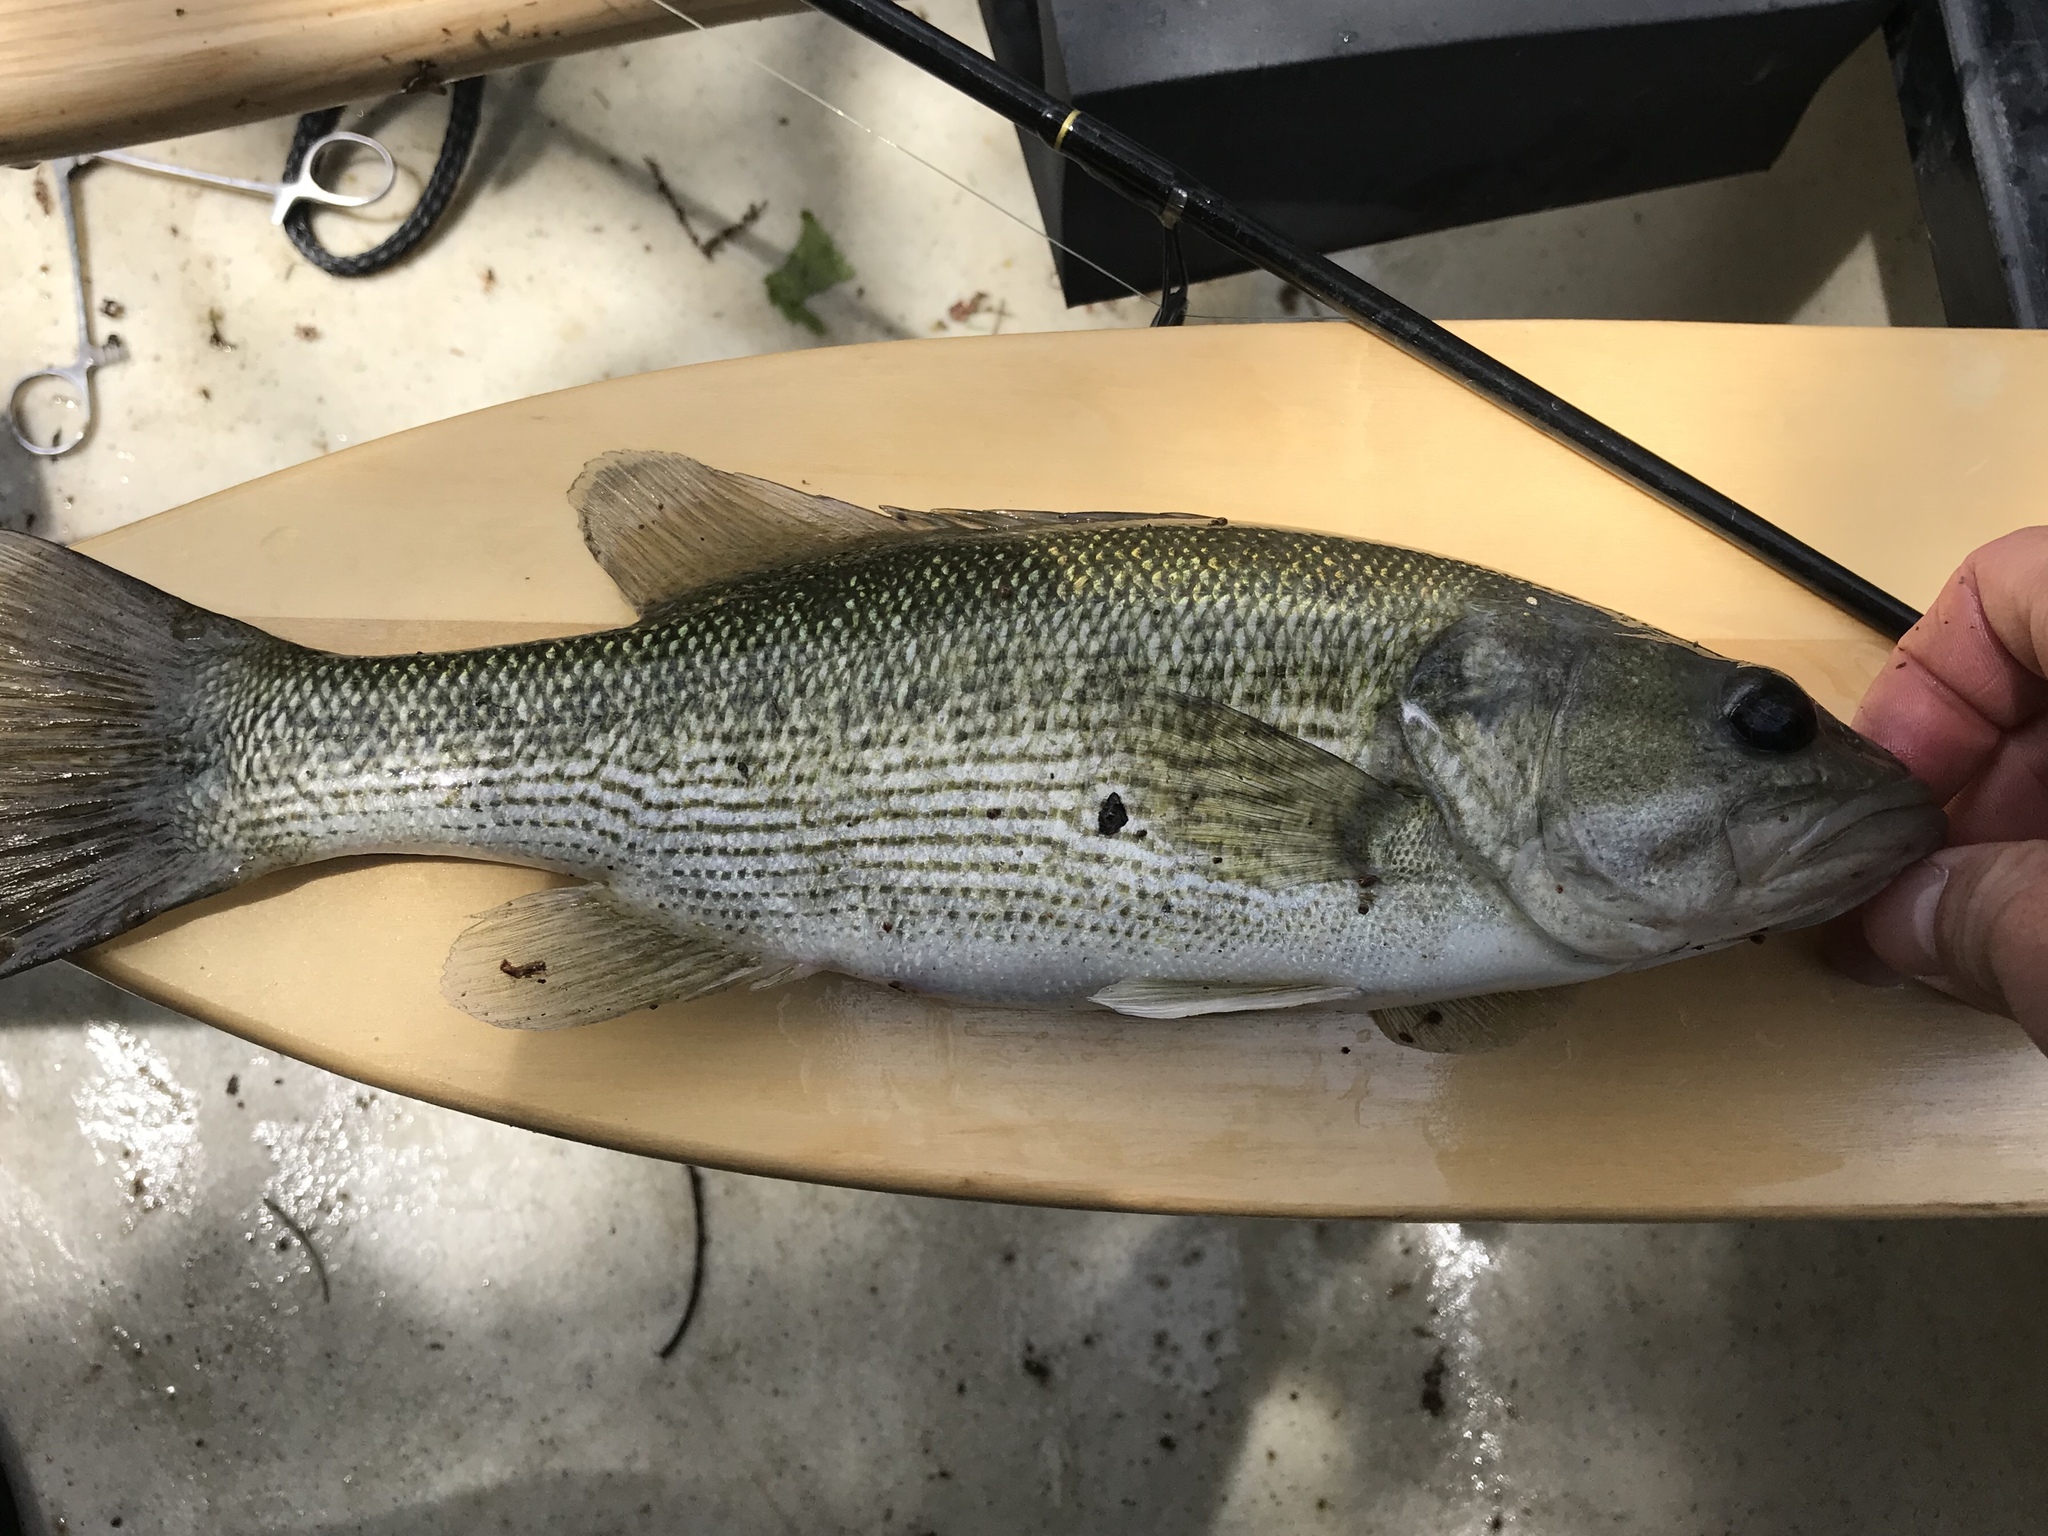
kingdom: Animalia
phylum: Chordata
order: Perciformes
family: Centrarchidae
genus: Micropterus
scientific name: Micropterus treculii
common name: Guadalupe bass
